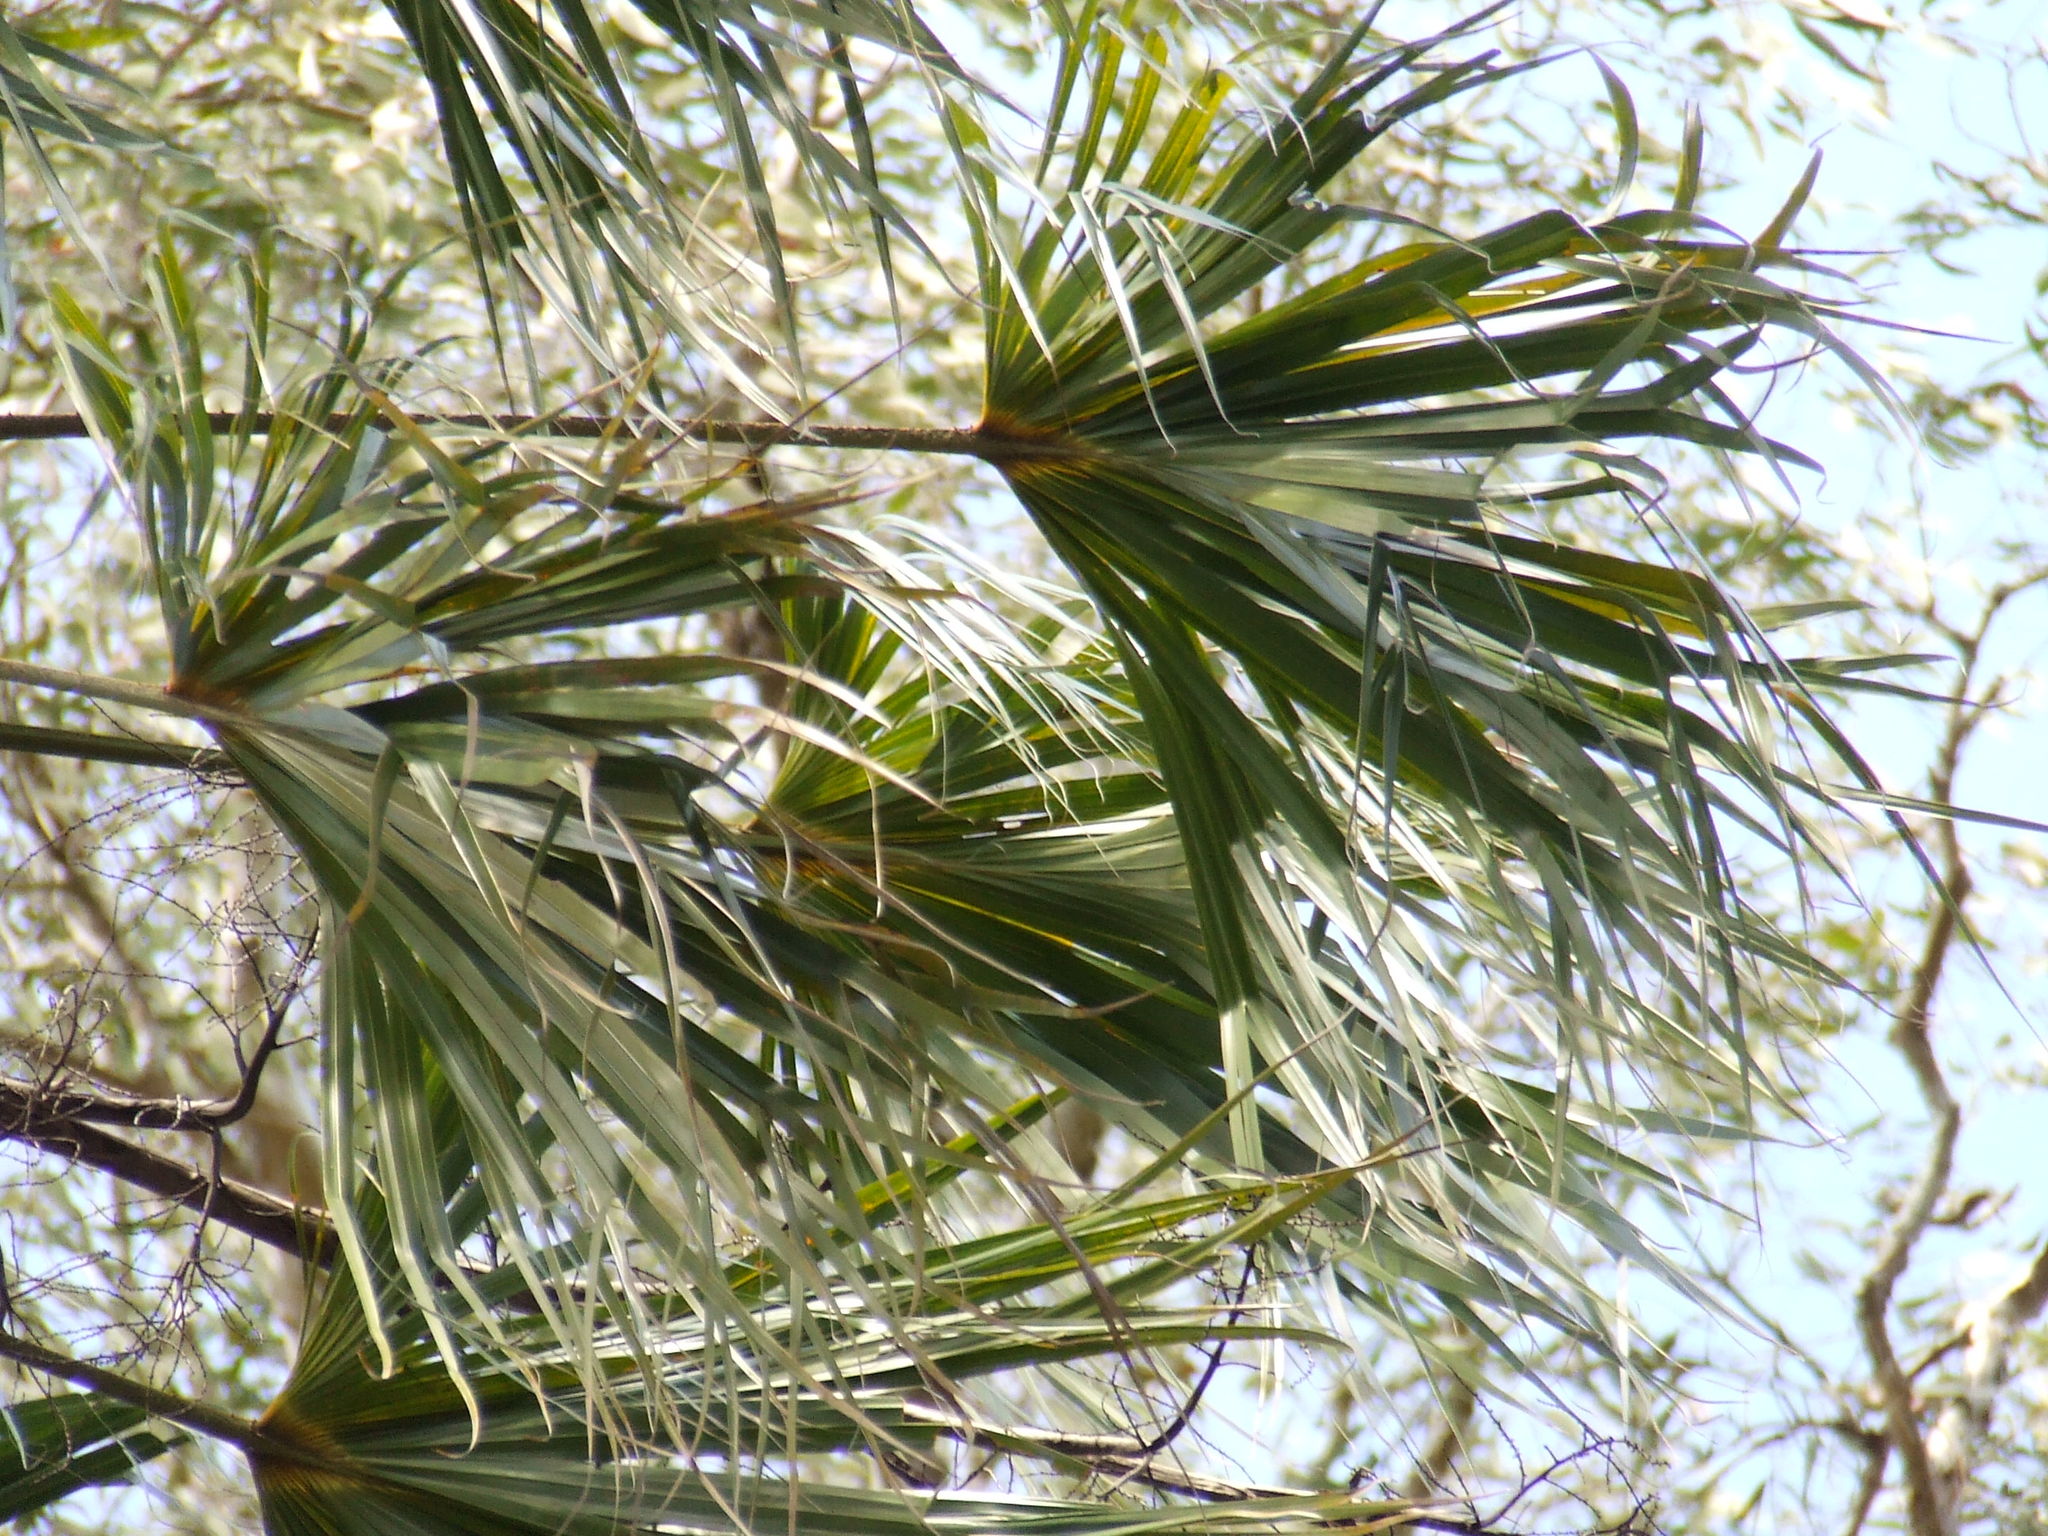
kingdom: Plantae
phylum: Tracheophyta
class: Liliopsida
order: Arecales
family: Arecaceae
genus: Livistona
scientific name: Livistona benthamii
